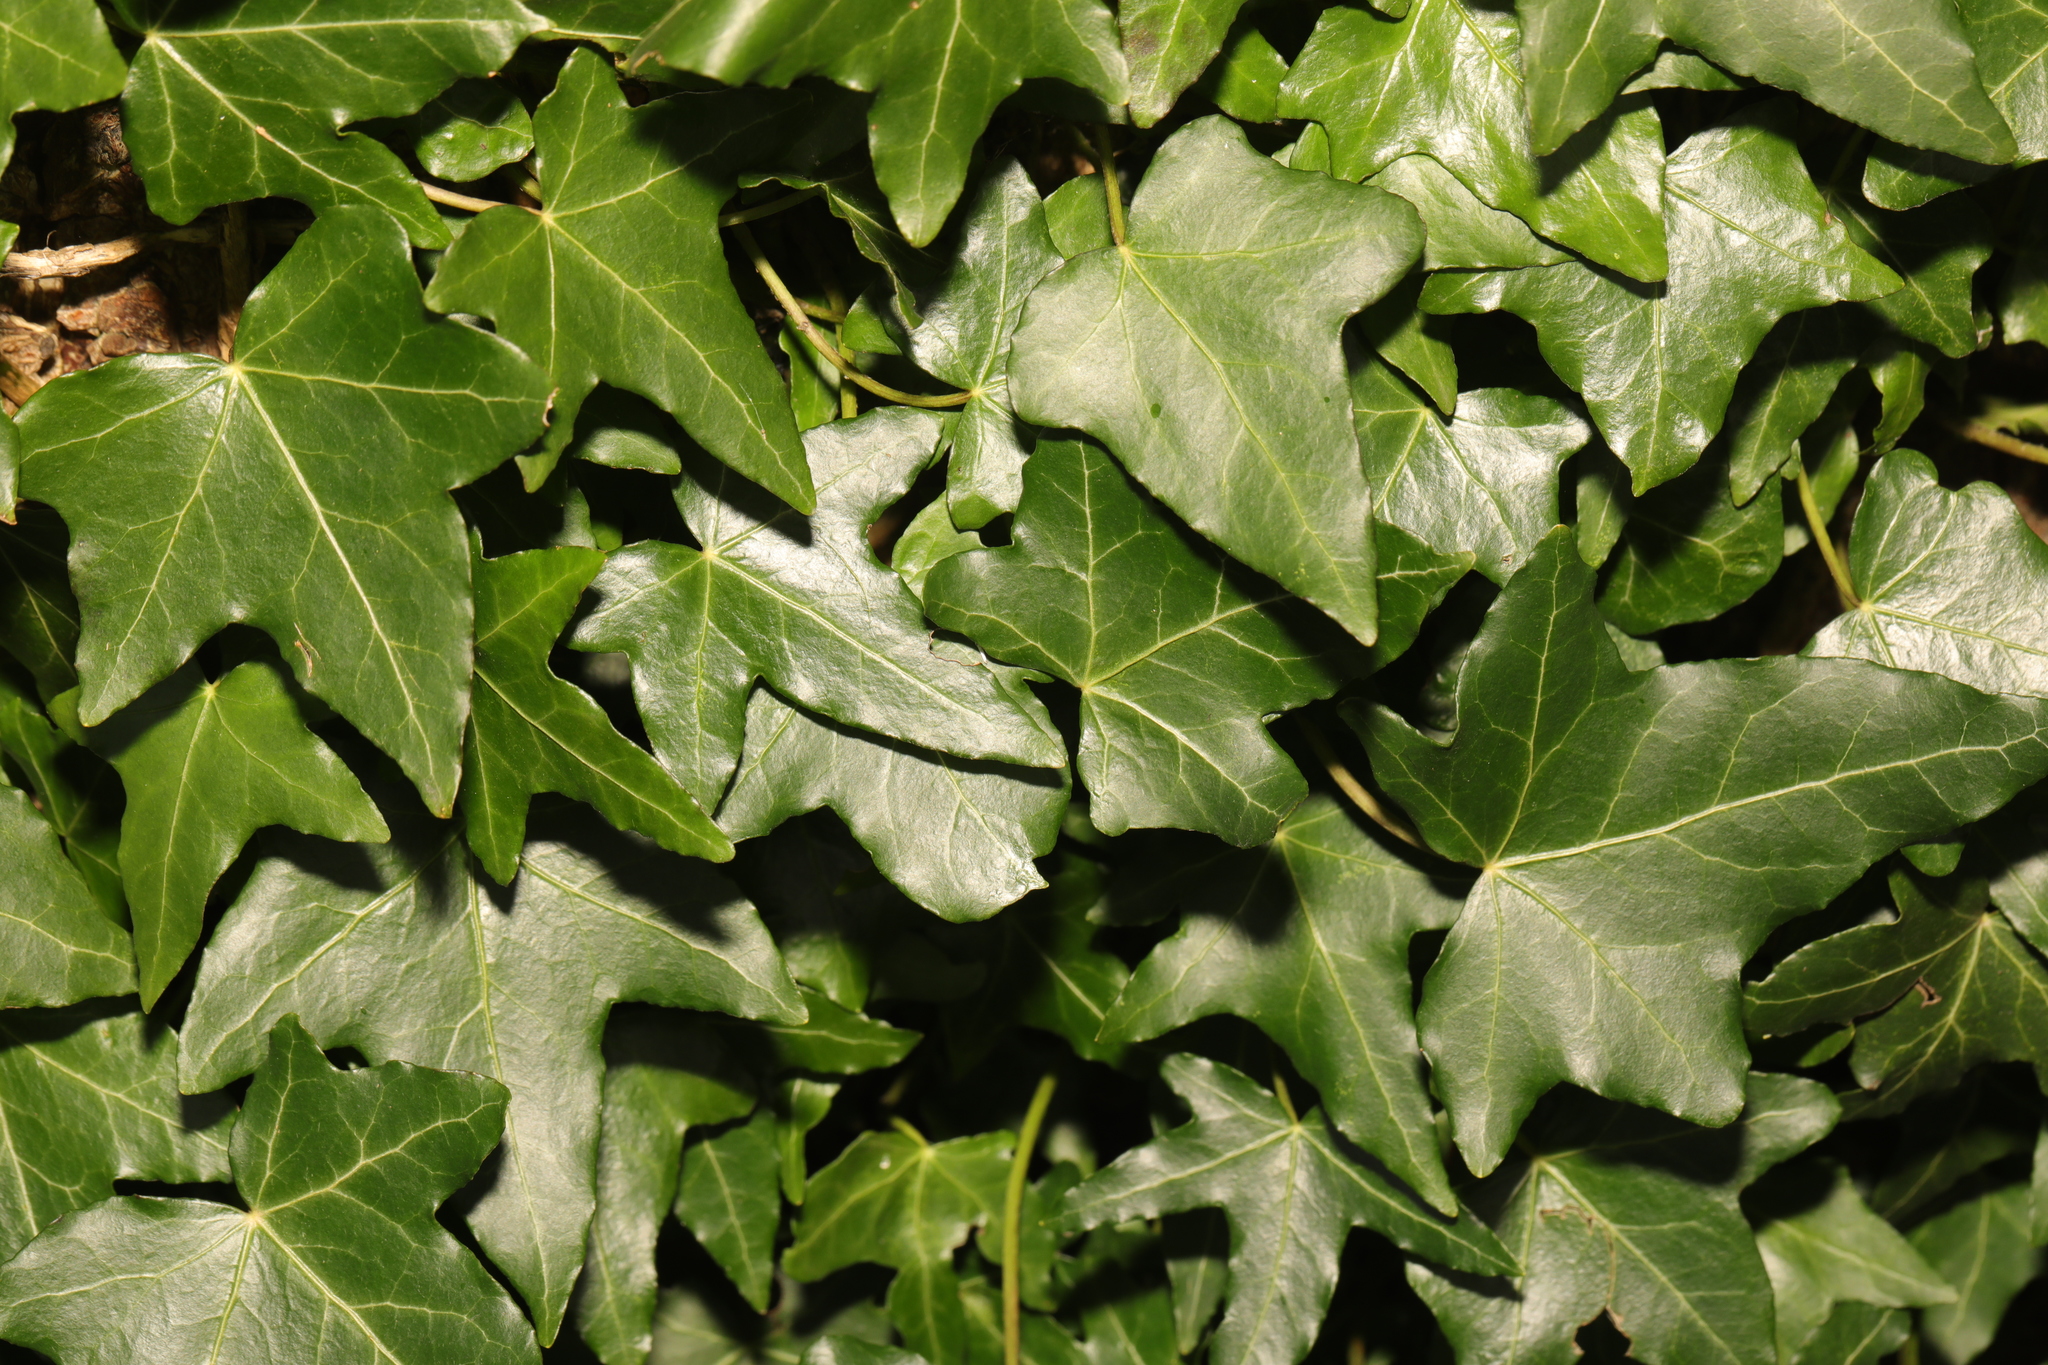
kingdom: Plantae
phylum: Tracheophyta
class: Magnoliopsida
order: Apiales
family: Araliaceae
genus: Hedera
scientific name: Hedera helix
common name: Ivy
